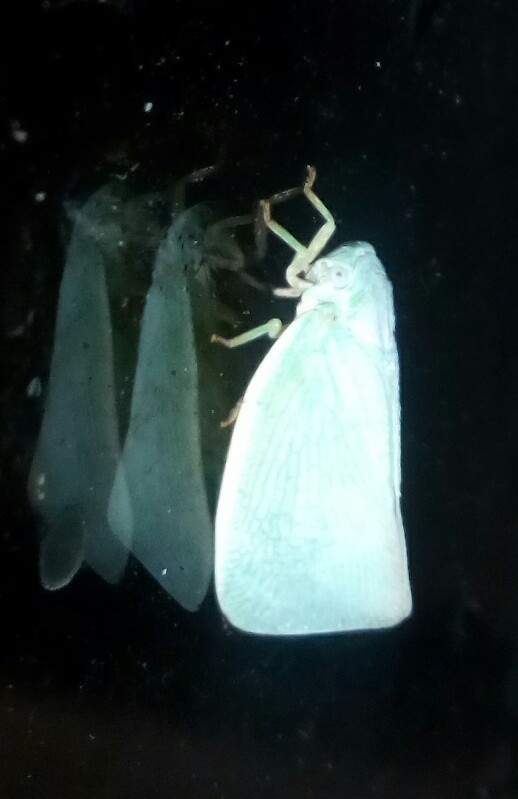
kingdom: Animalia
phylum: Arthropoda
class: Insecta
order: Hemiptera
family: Flatidae
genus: Flatormenis
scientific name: Flatormenis proxima
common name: Northern flatid planthopper
